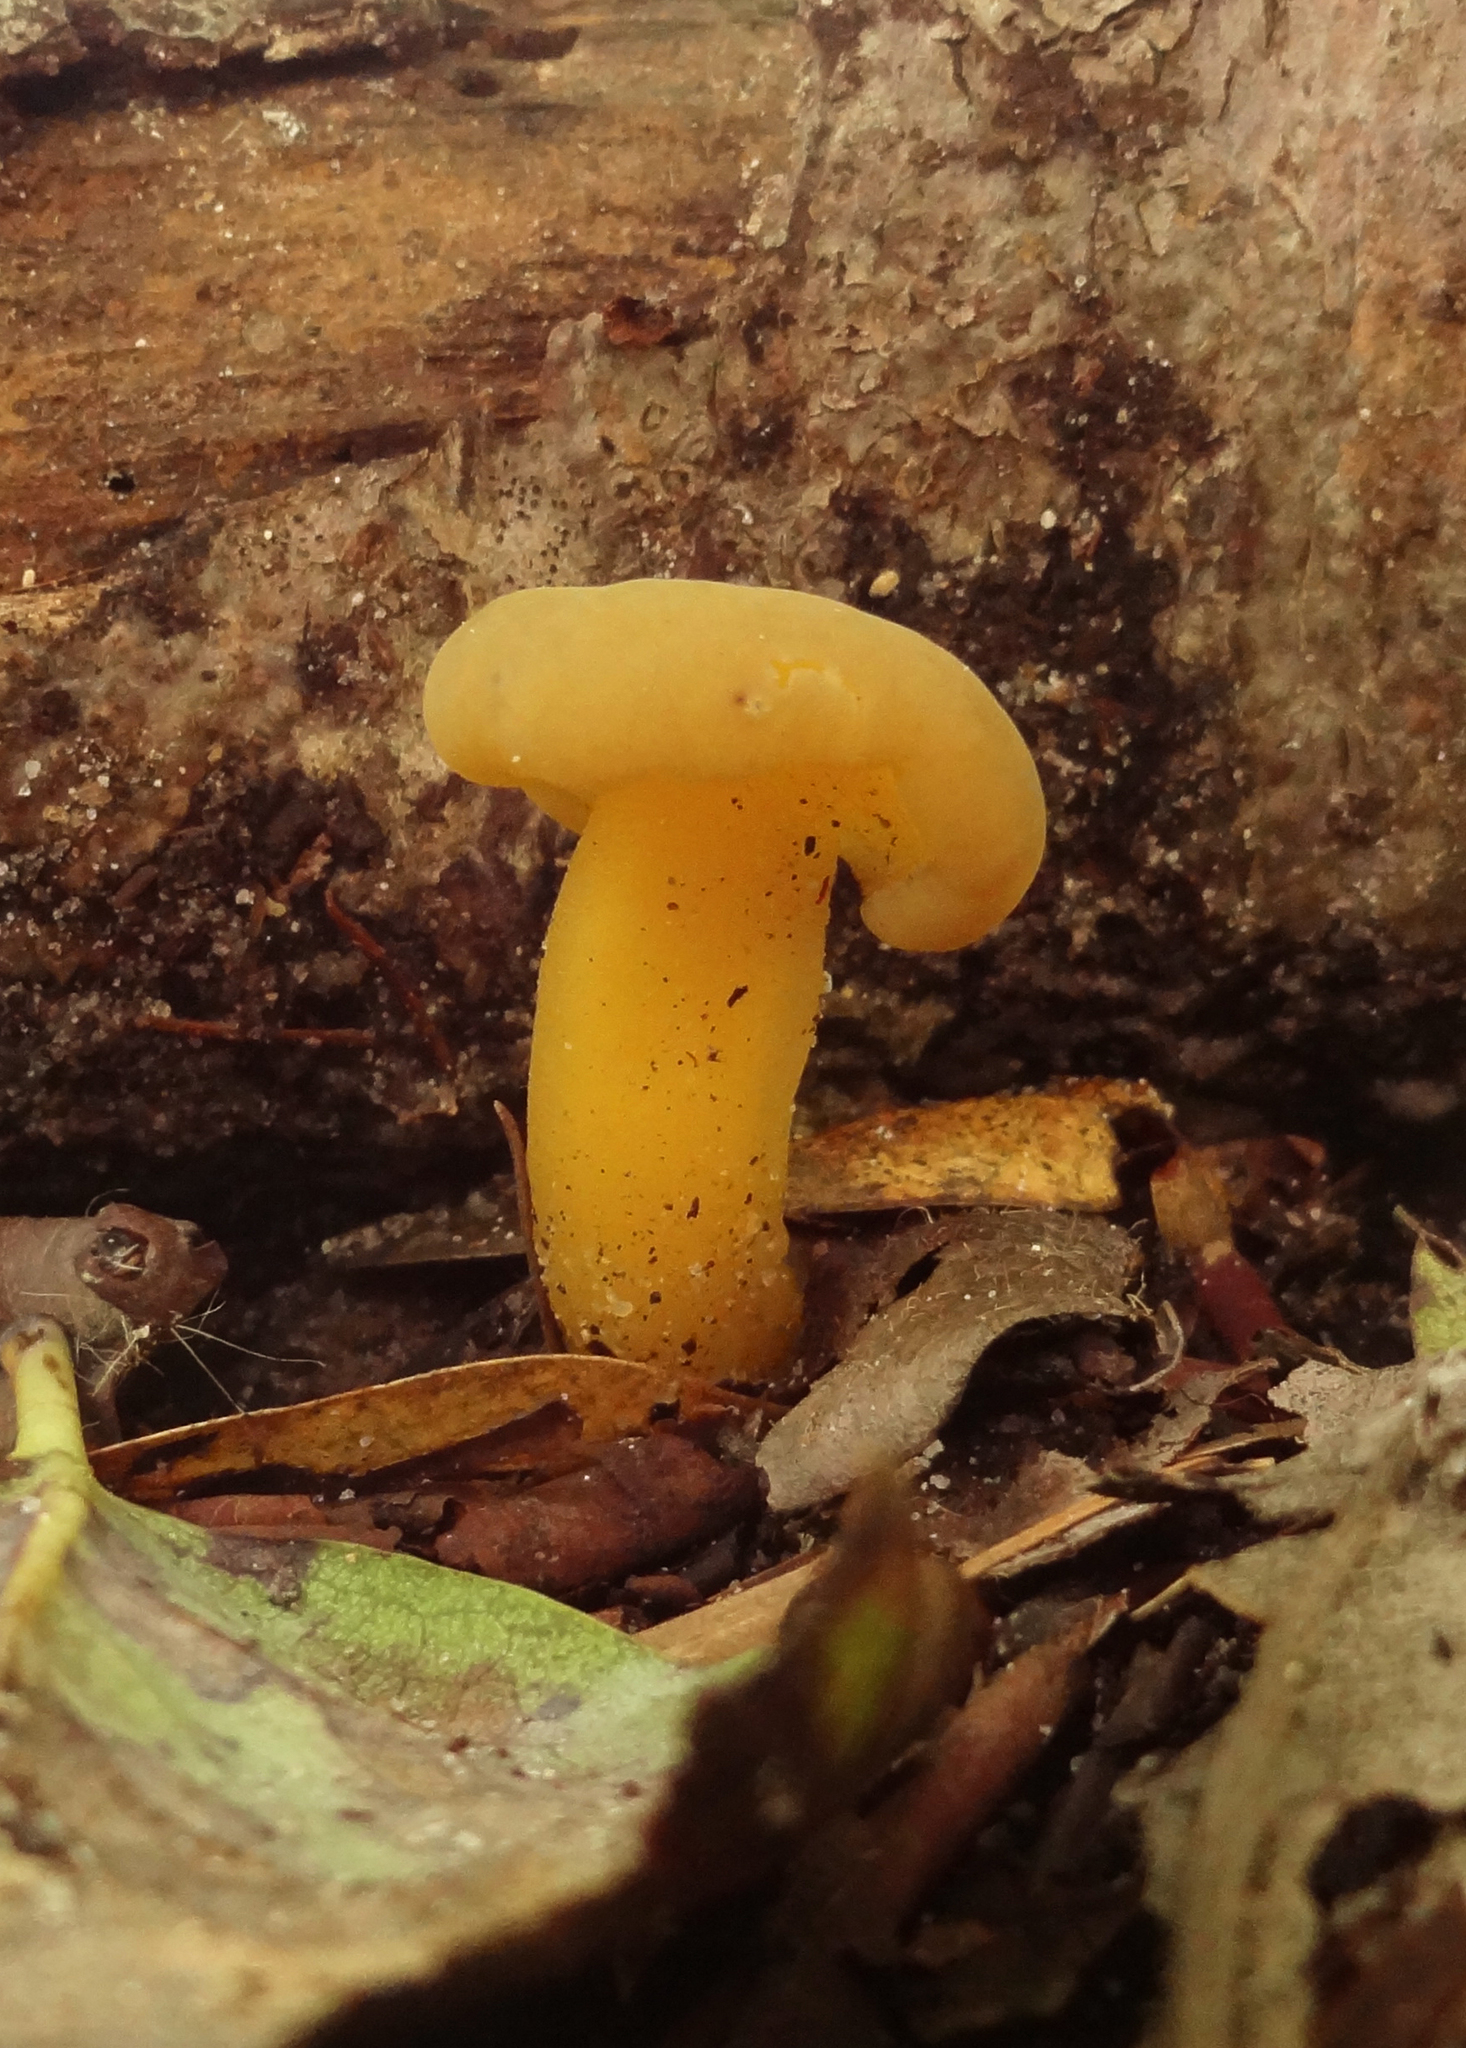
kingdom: Fungi
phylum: Ascomycota
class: Leotiomycetes
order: Leotiales
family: Leotiaceae
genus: Leotia
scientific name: Leotia lubrica
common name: Jellybaby
